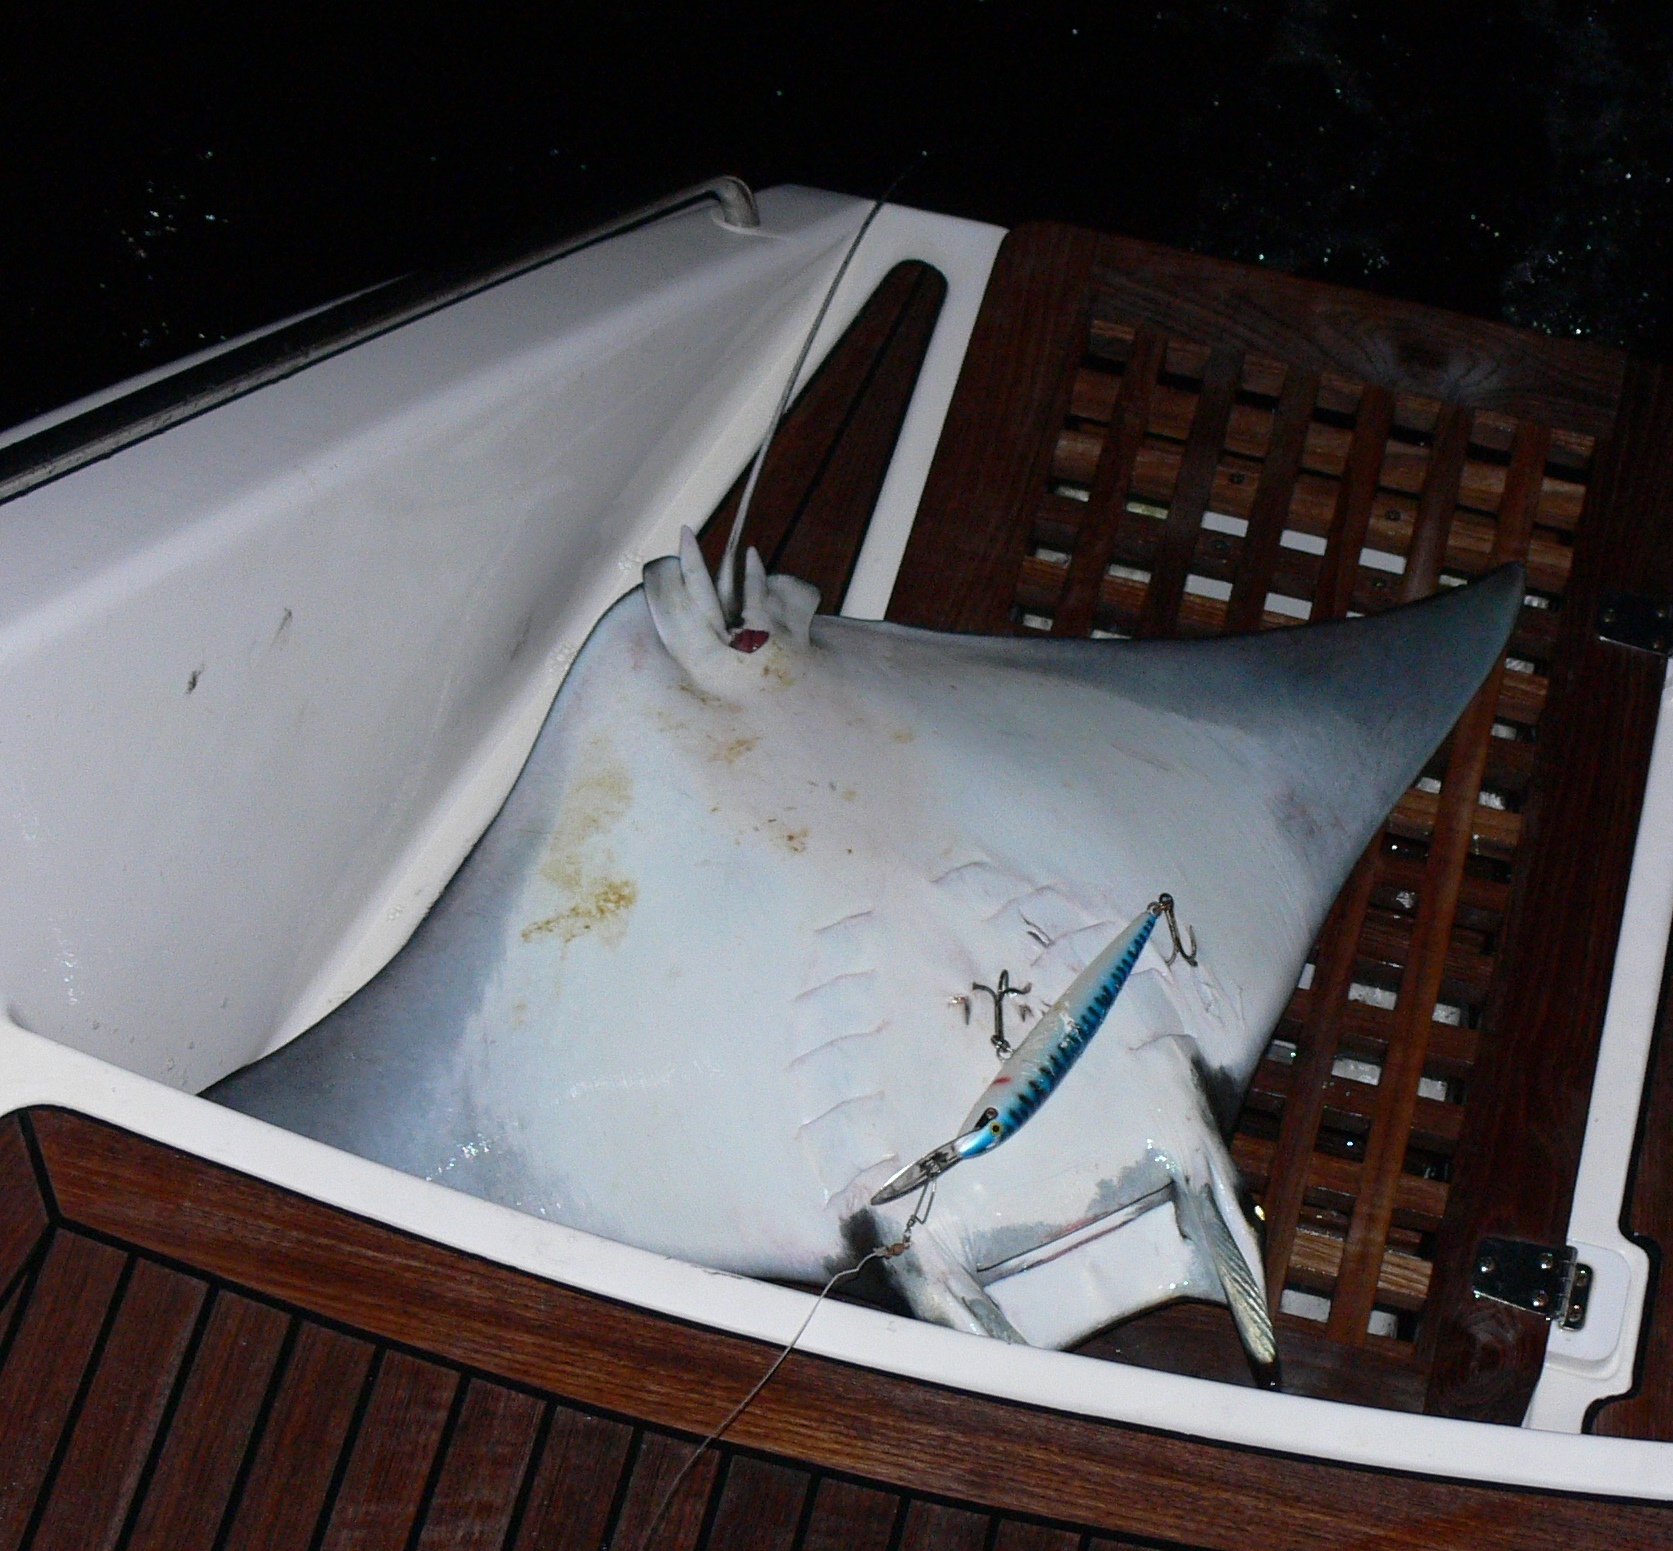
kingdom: Animalia
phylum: Chordata
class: Elasmobranchii
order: Myliobatiformes
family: Myliobatidae
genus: Mobula
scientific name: Mobula munkiana
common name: Pygmy devil ray
